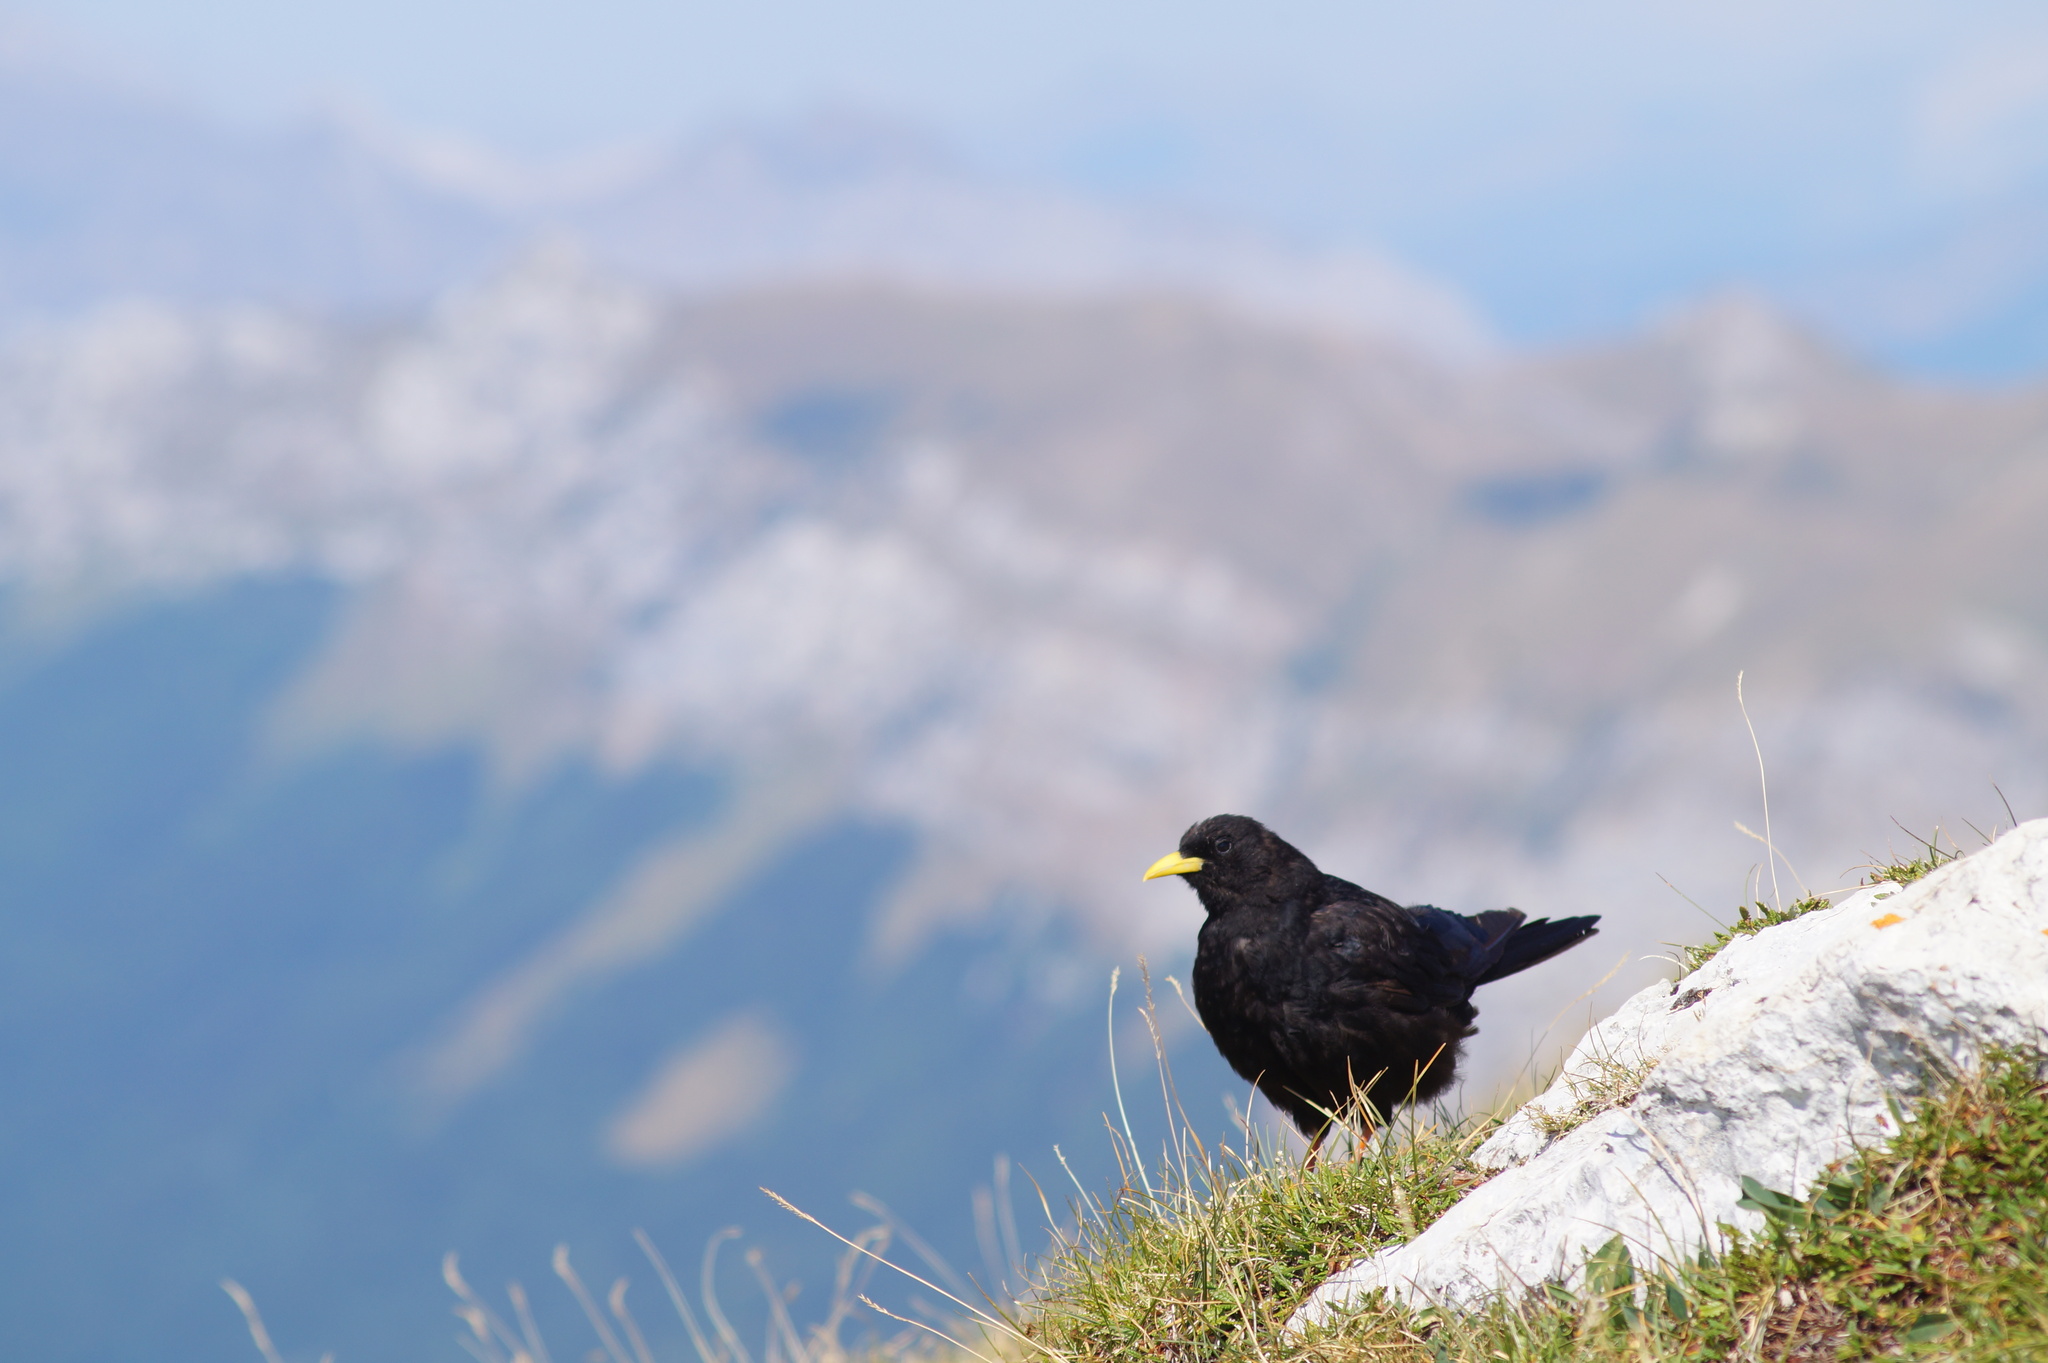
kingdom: Animalia
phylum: Chordata
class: Aves
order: Passeriformes
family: Corvidae
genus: Pyrrhocorax
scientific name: Pyrrhocorax graculus
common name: Alpine chough
